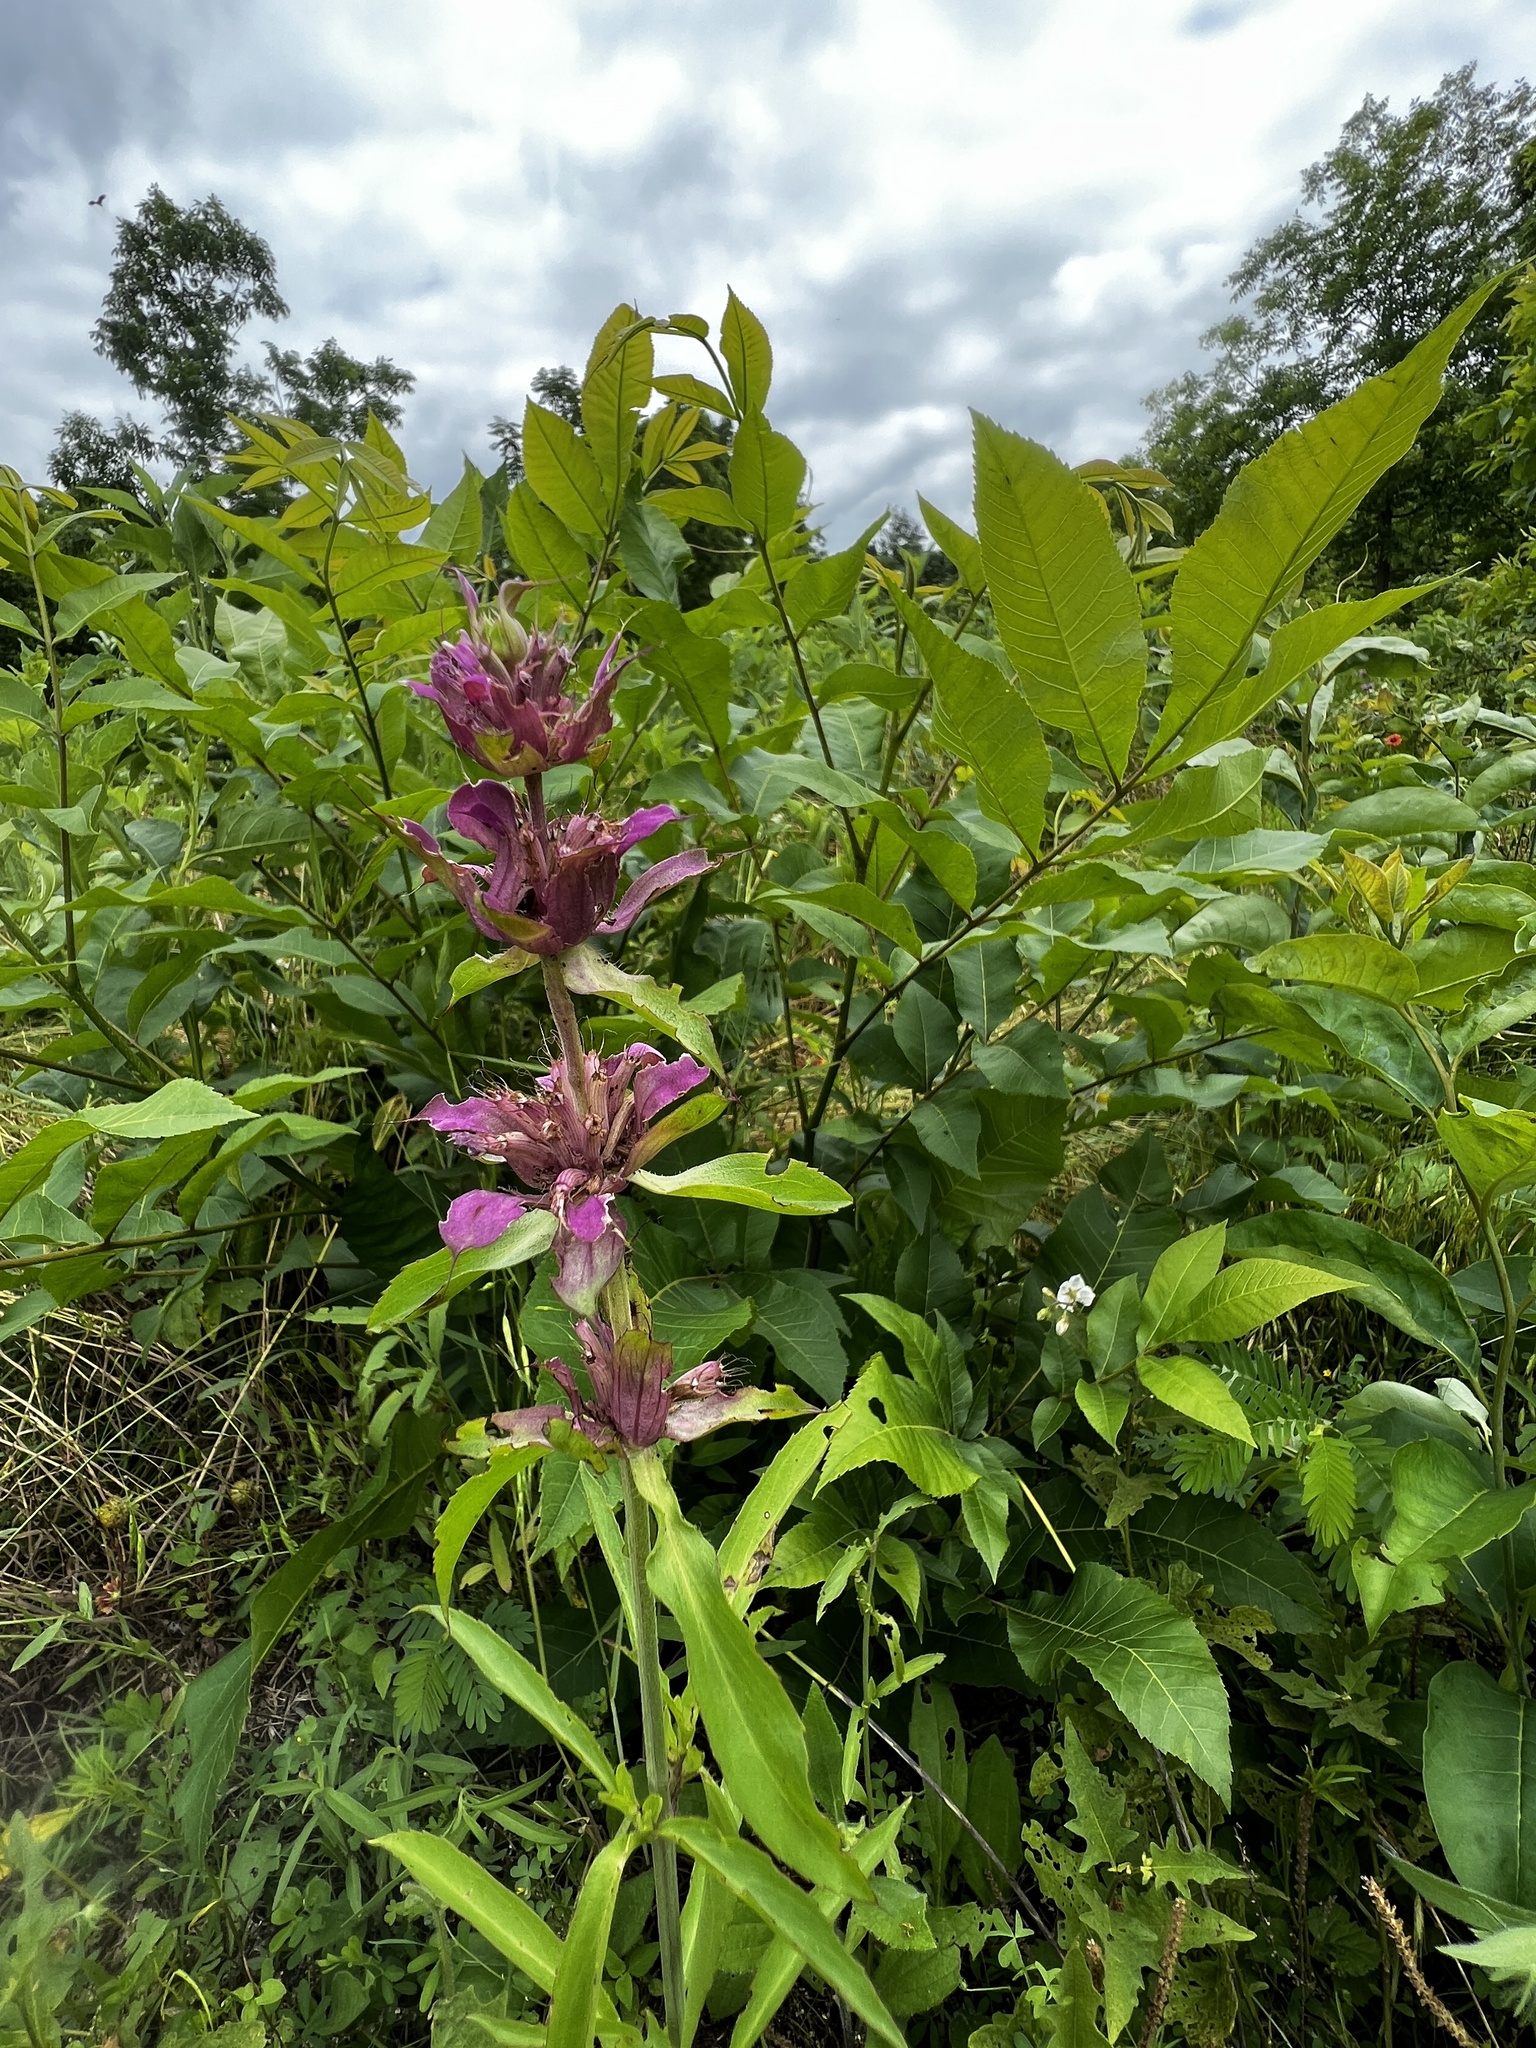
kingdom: Plantae
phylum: Tracheophyta
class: Magnoliopsida
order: Lamiales
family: Lamiaceae
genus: Monarda
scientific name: Monarda citriodora
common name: Lemon beebalm
